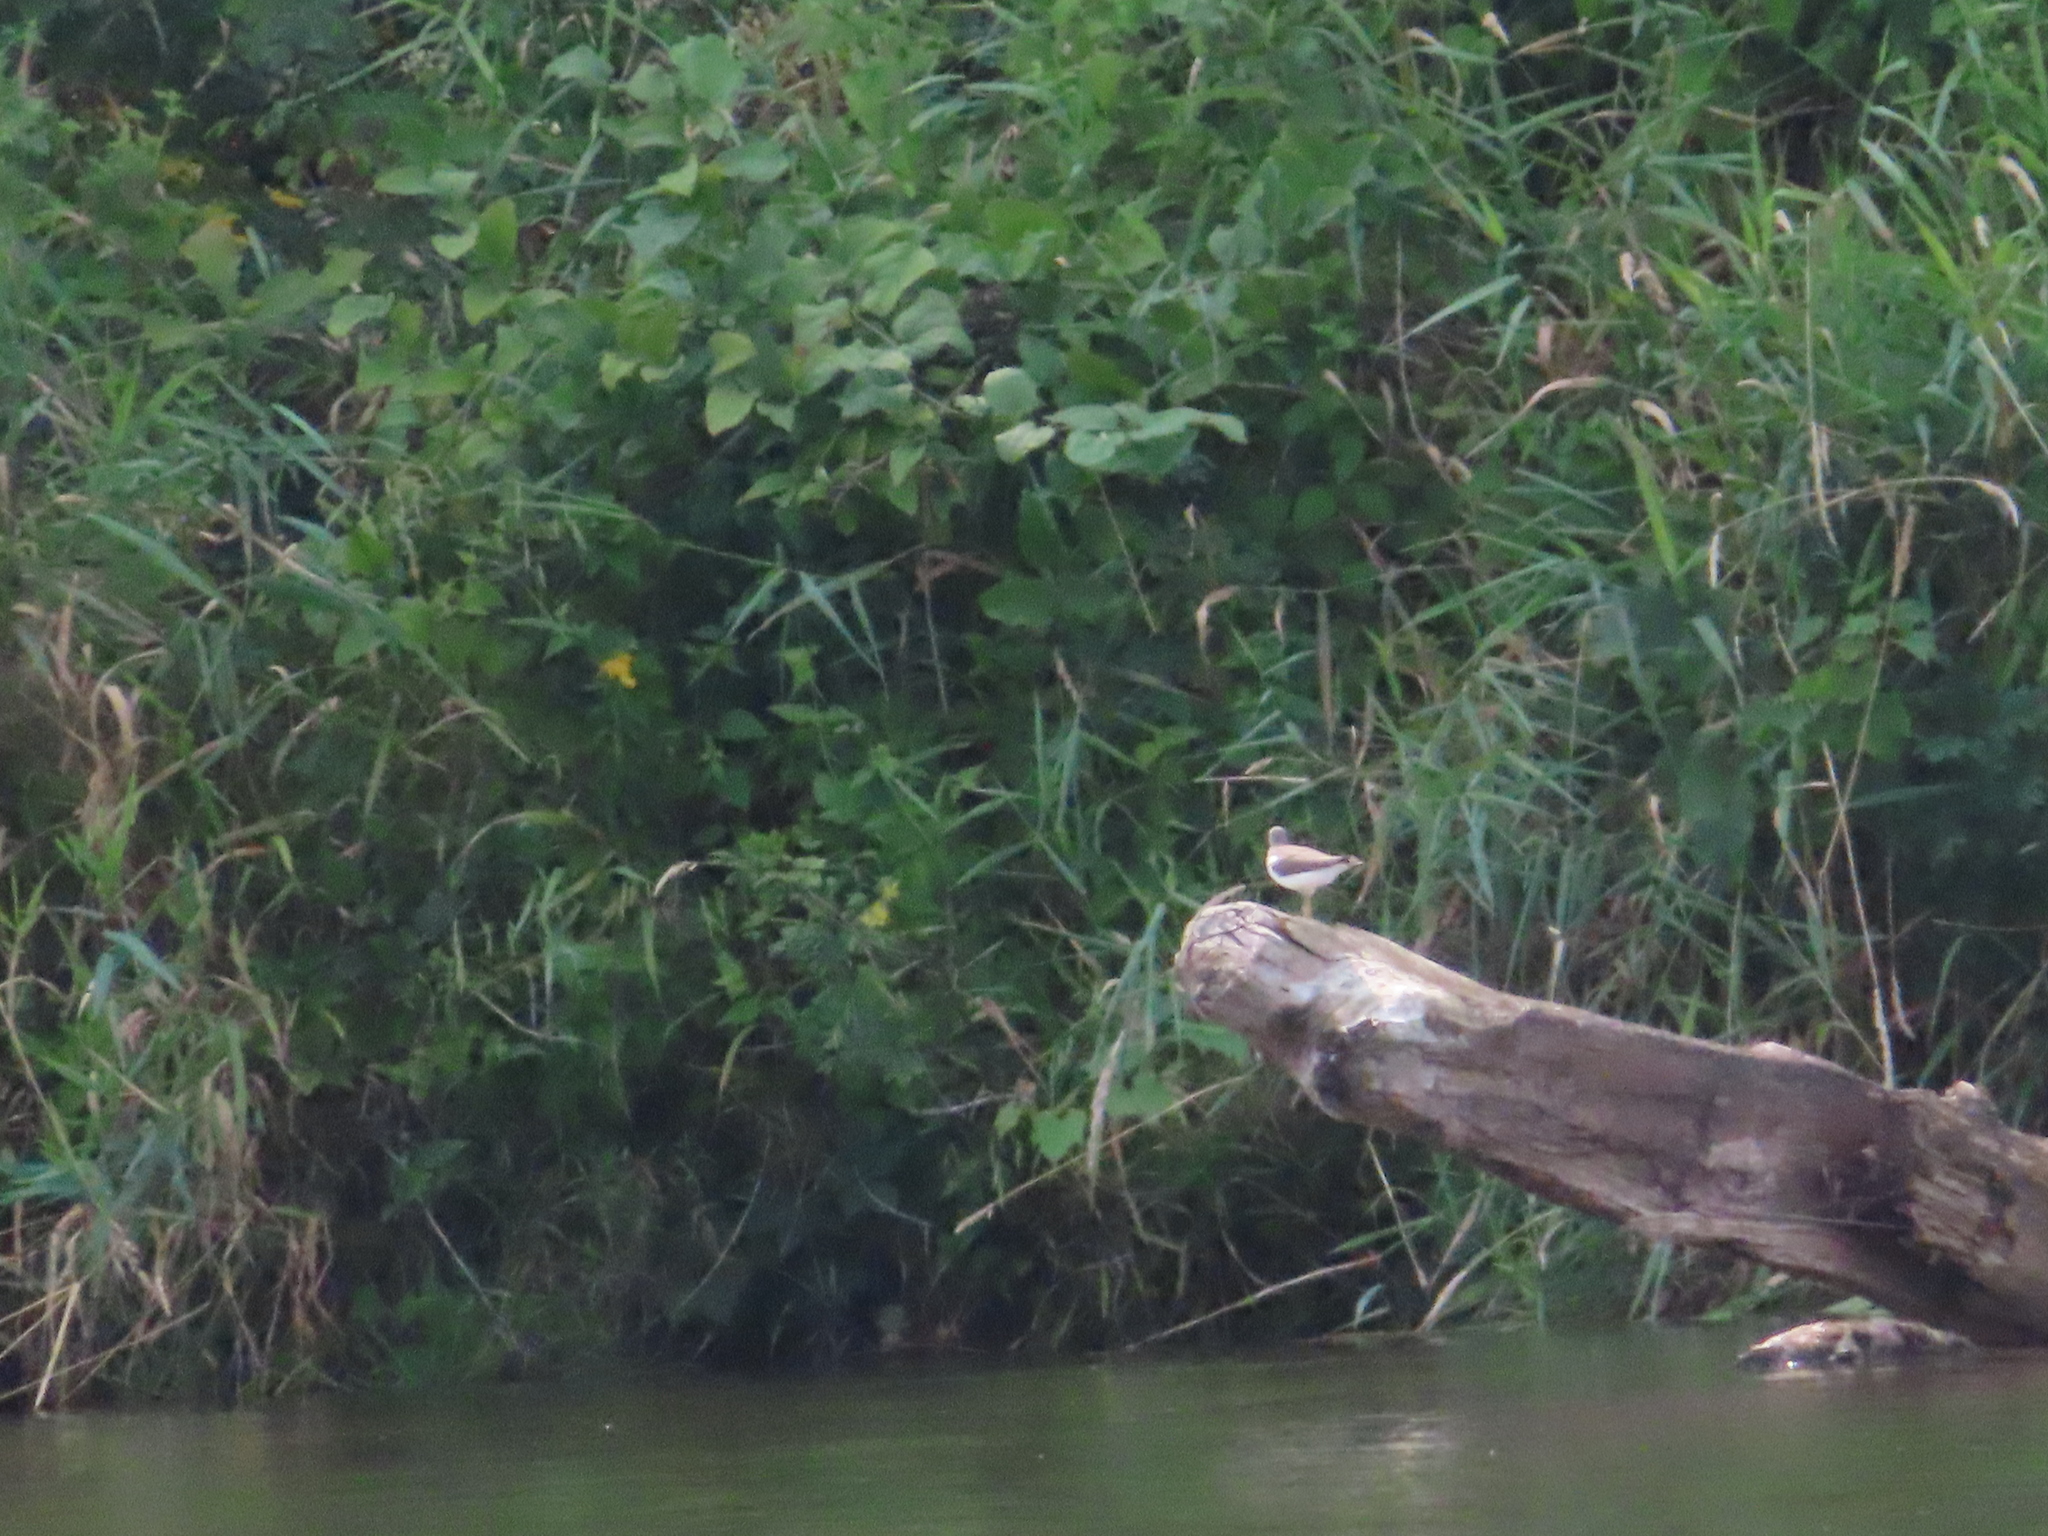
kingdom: Animalia
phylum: Chordata
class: Aves
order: Charadriiformes
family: Scolopacidae
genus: Actitis
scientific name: Actitis macularius
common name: Spotted sandpiper
